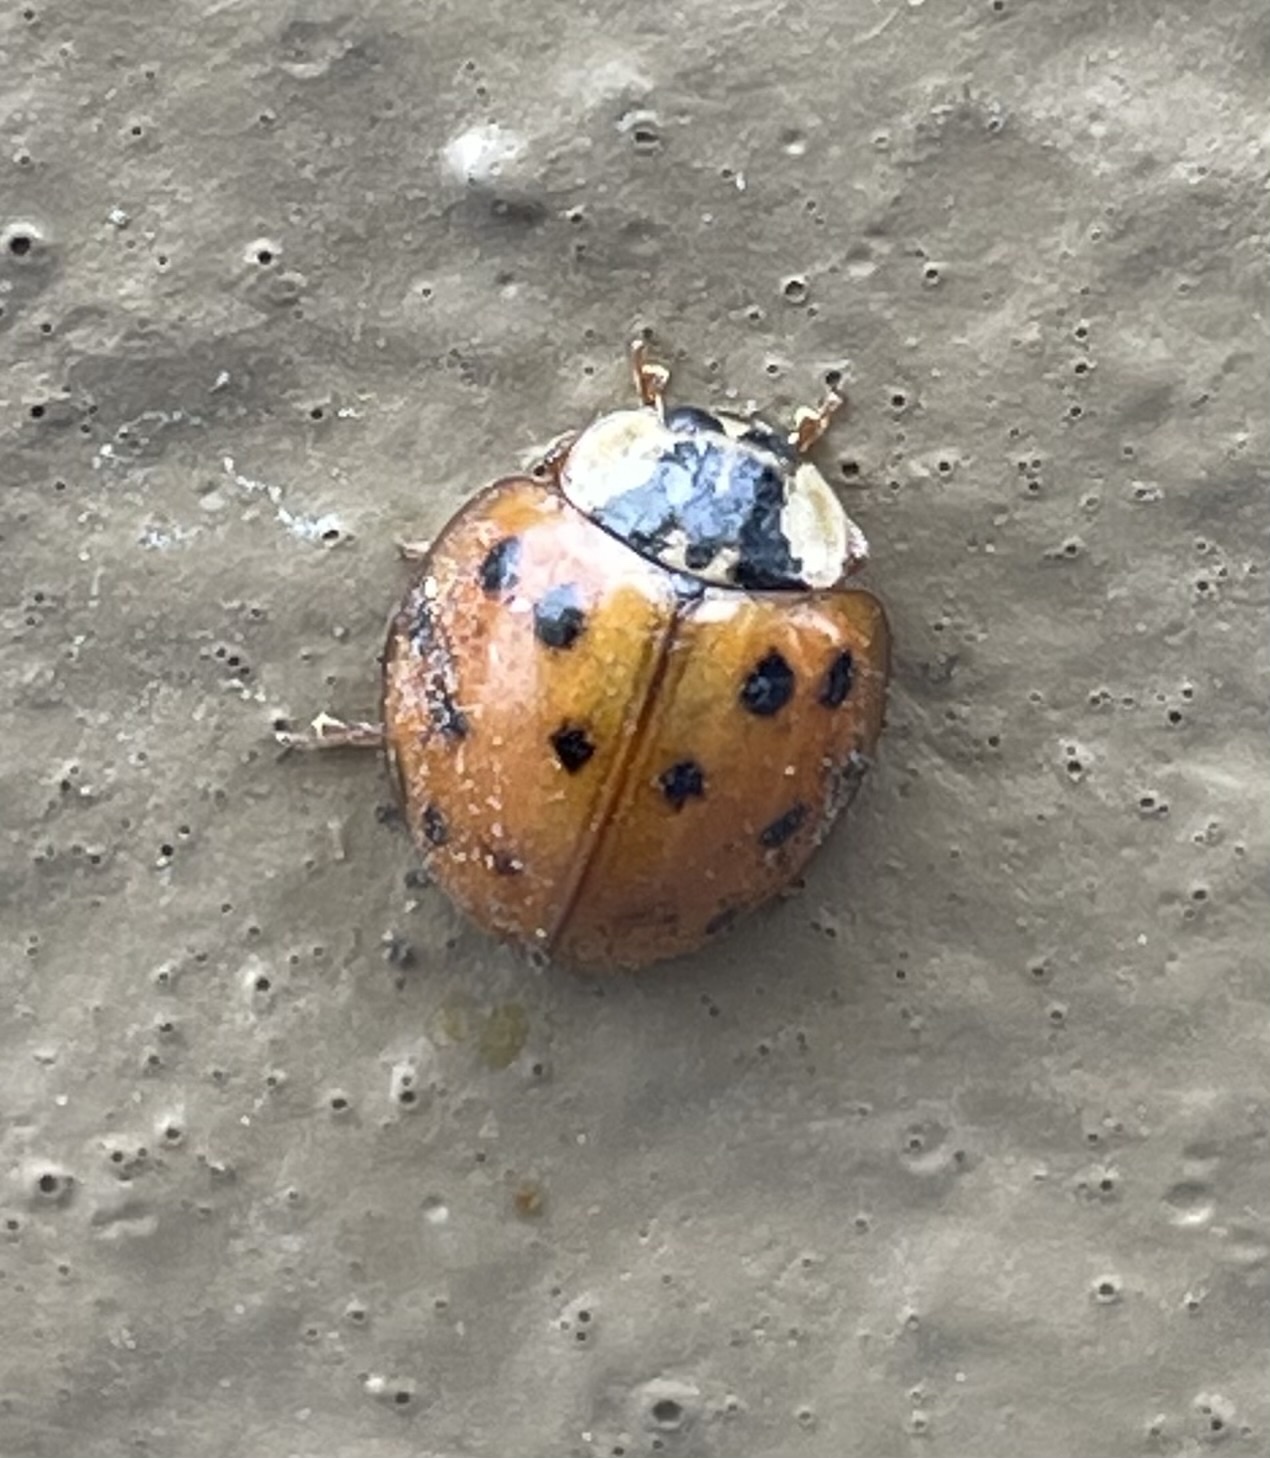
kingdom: Animalia
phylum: Arthropoda
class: Insecta
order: Coleoptera
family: Coccinellidae
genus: Harmonia
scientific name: Harmonia axyridis
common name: Harlequin ladybird
